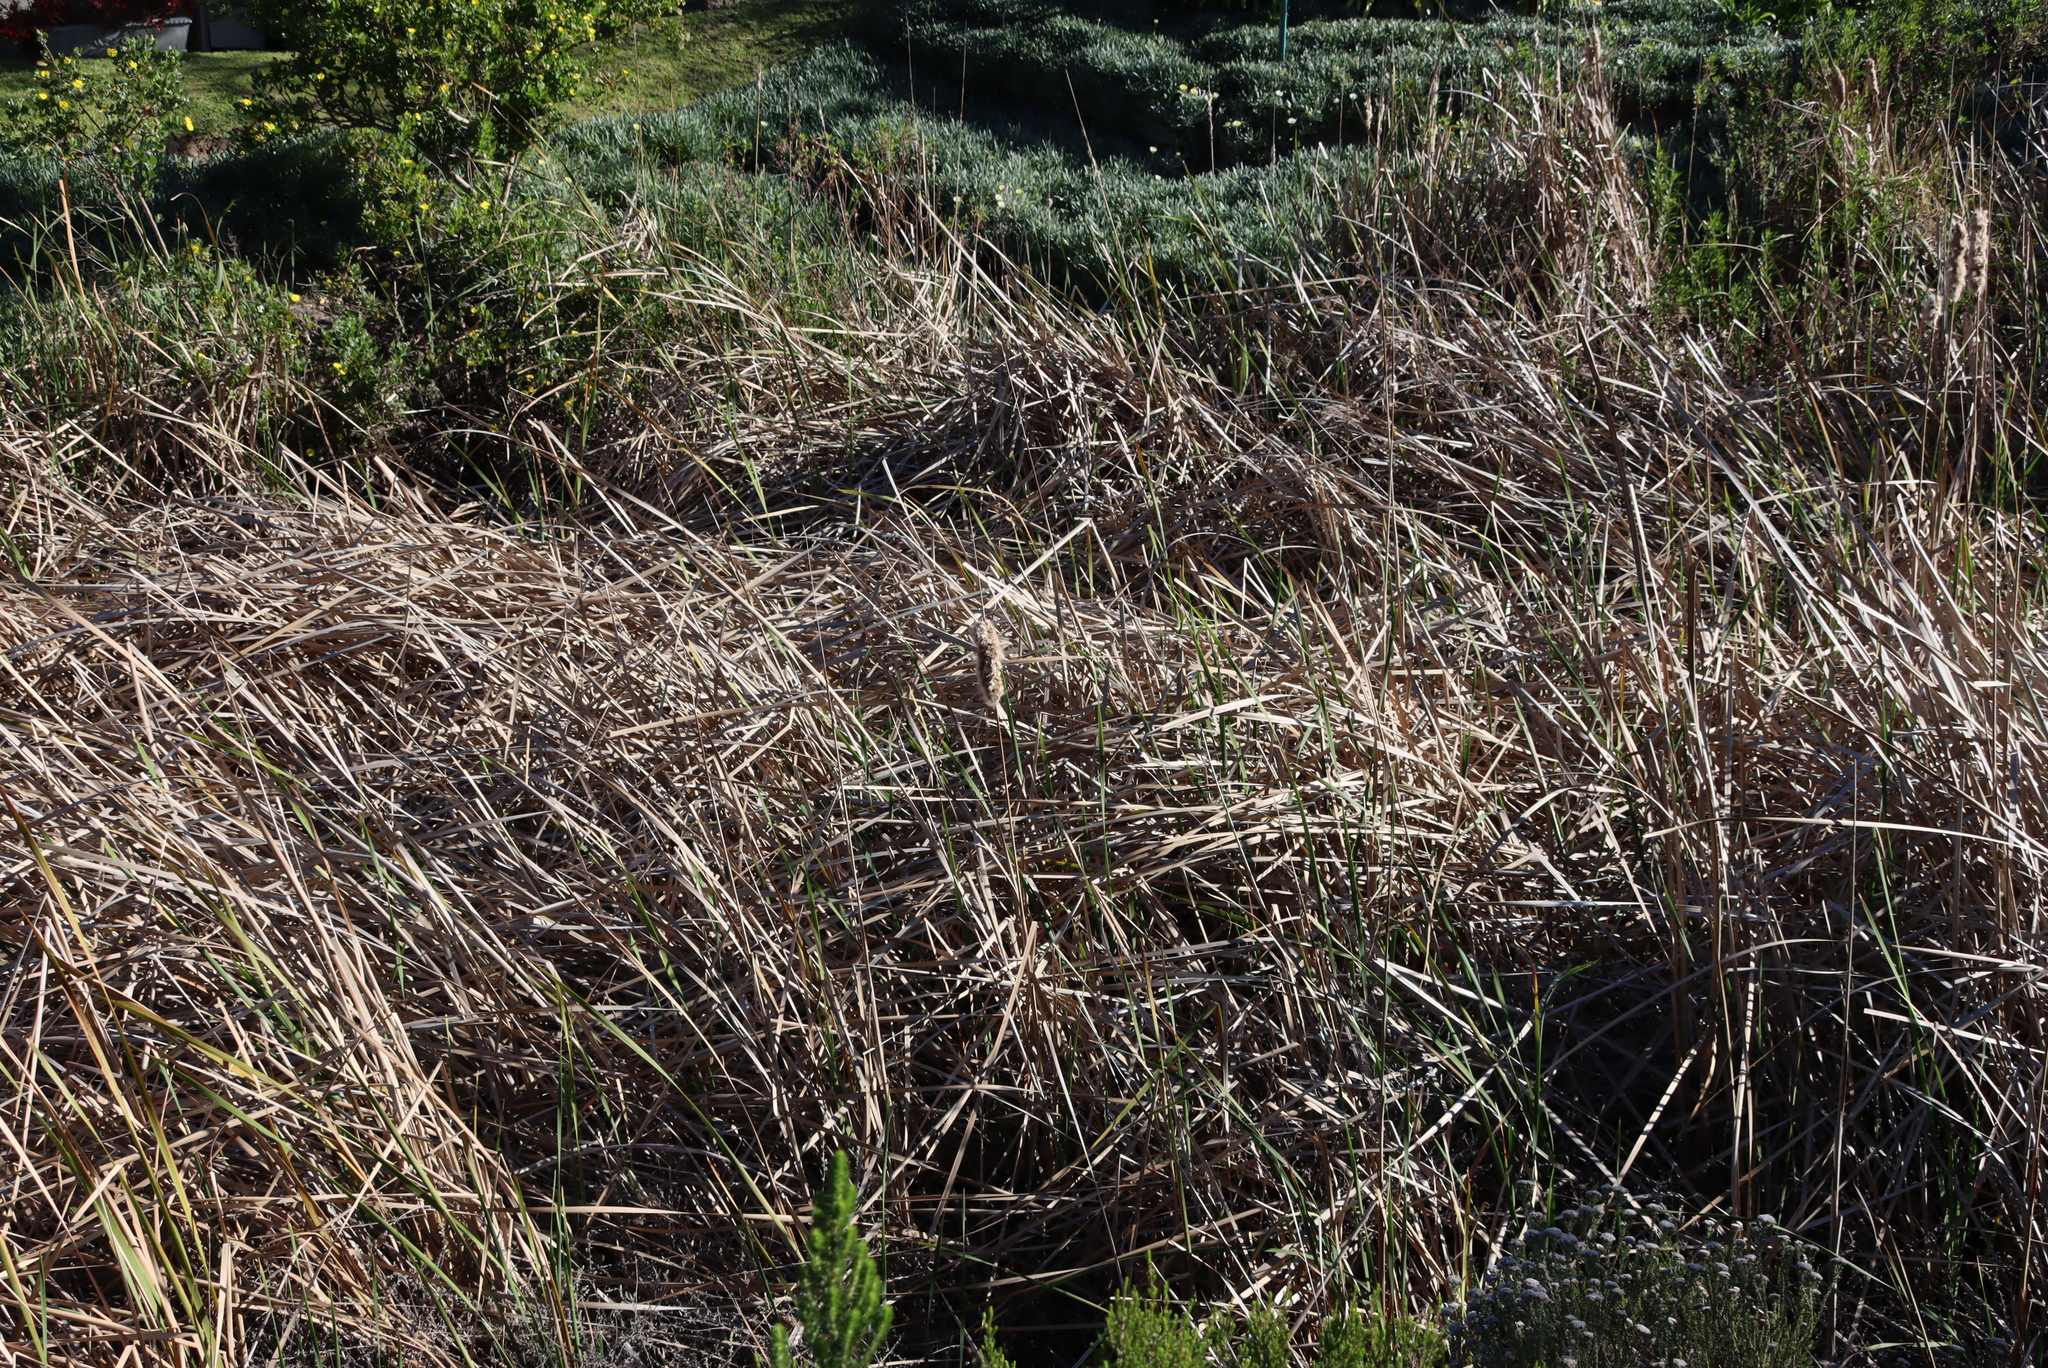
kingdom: Plantae
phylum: Tracheophyta
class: Liliopsida
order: Poales
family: Typhaceae
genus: Typha
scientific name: Typha capensis
